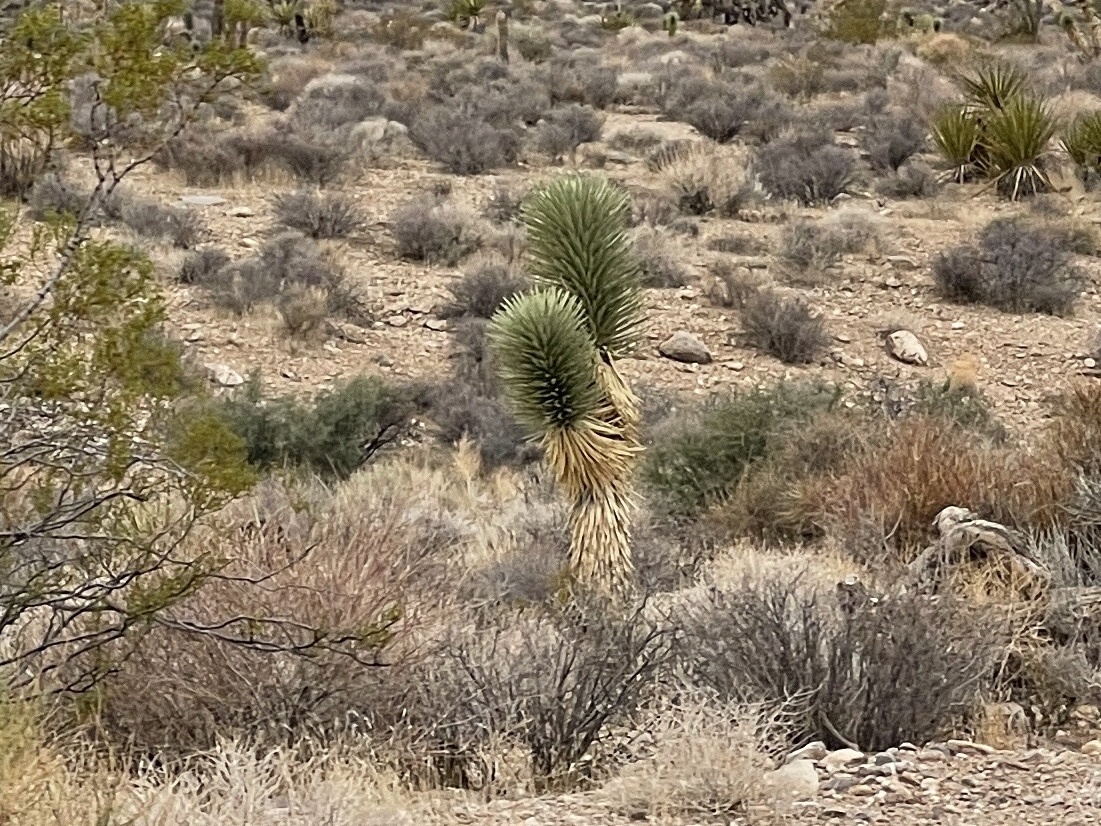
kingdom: Plantae
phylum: Tracheophyta
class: Liliopsida
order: Asparagales
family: Asparagaceae
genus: Yucca
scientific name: Yucca brevifolia
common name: Joshua tree
